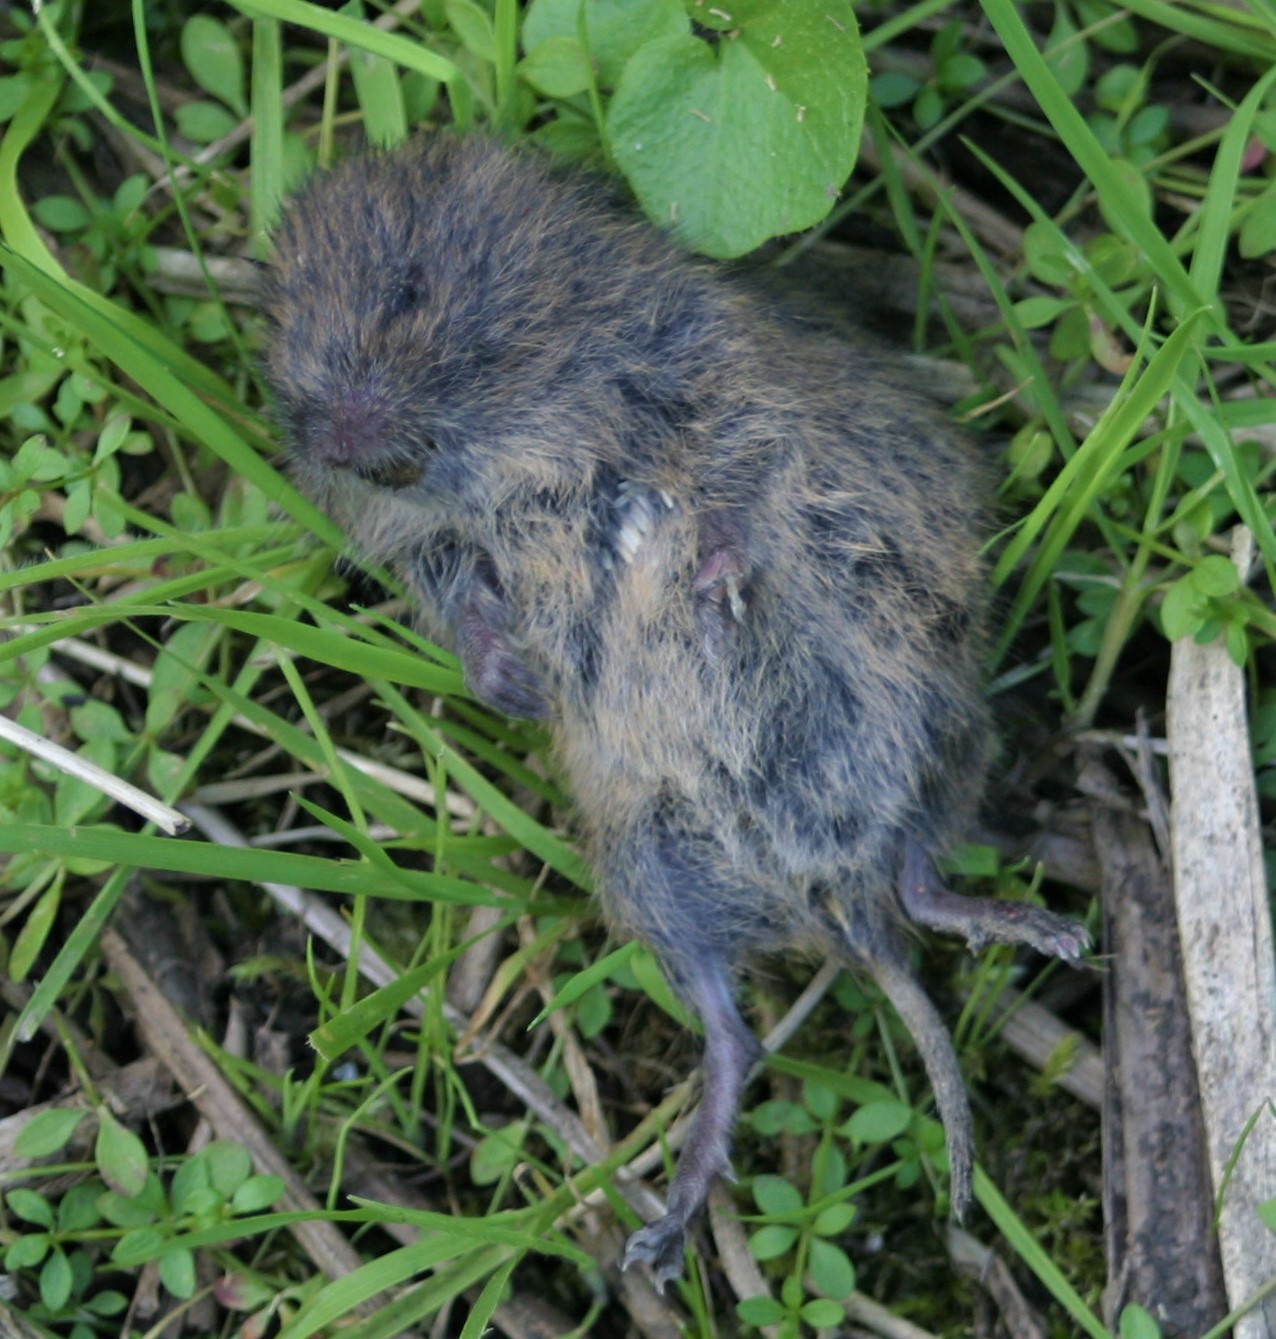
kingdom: Animalia
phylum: Chordata
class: Mammalia
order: Rodentia
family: Cricetidae
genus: Microtus
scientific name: Microtus agrestis
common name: Field vole
